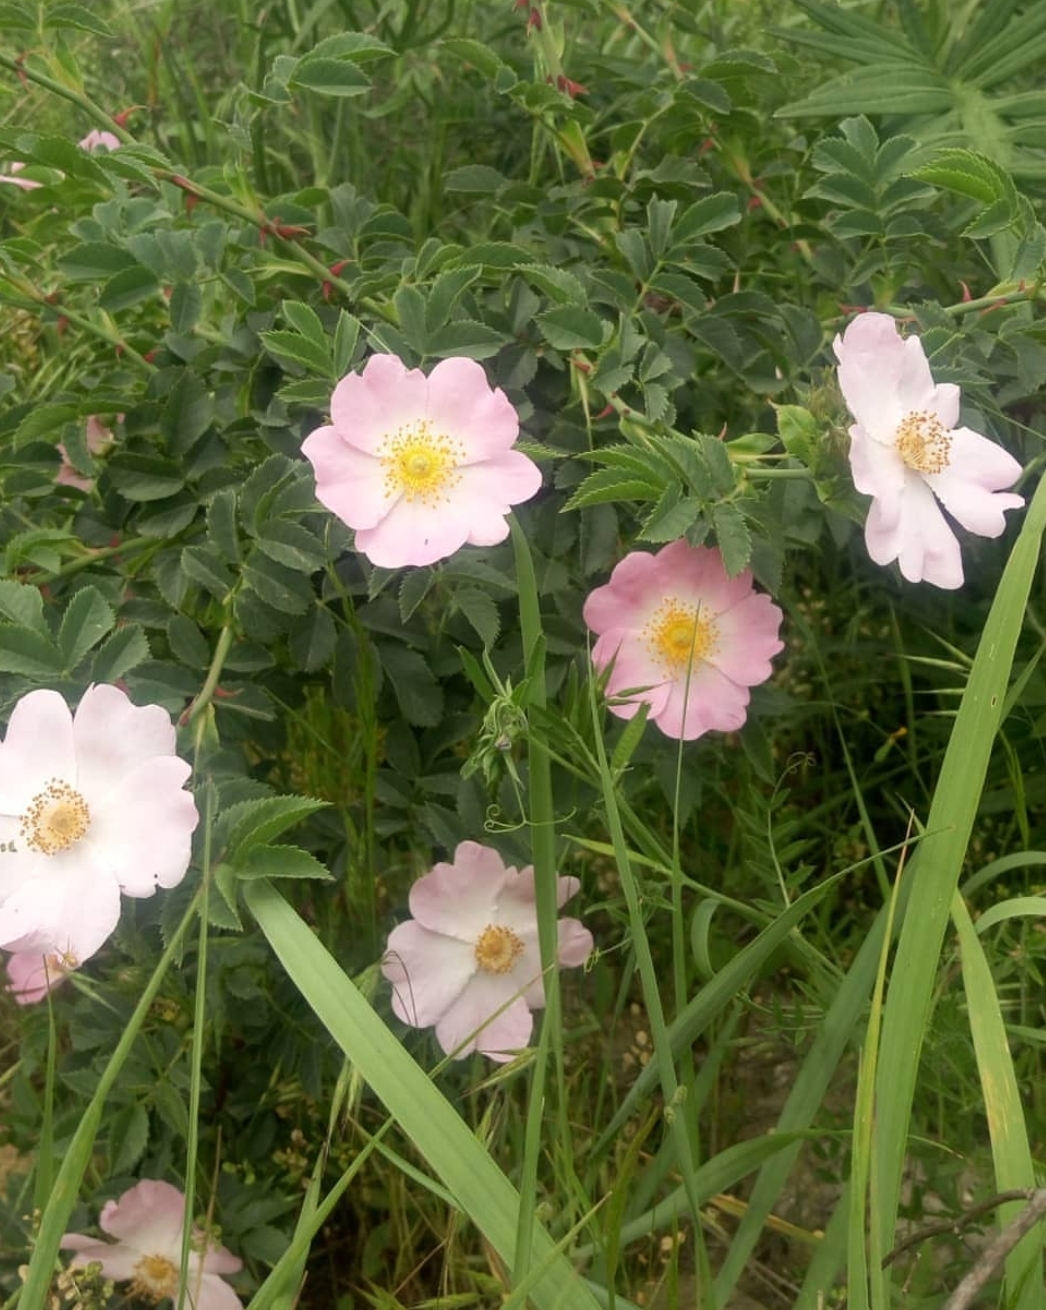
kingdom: Plantae
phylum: Tracheophyta
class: Magnoliopsida
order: Rosales
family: Rosaceae
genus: Rosa
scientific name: Rosa
